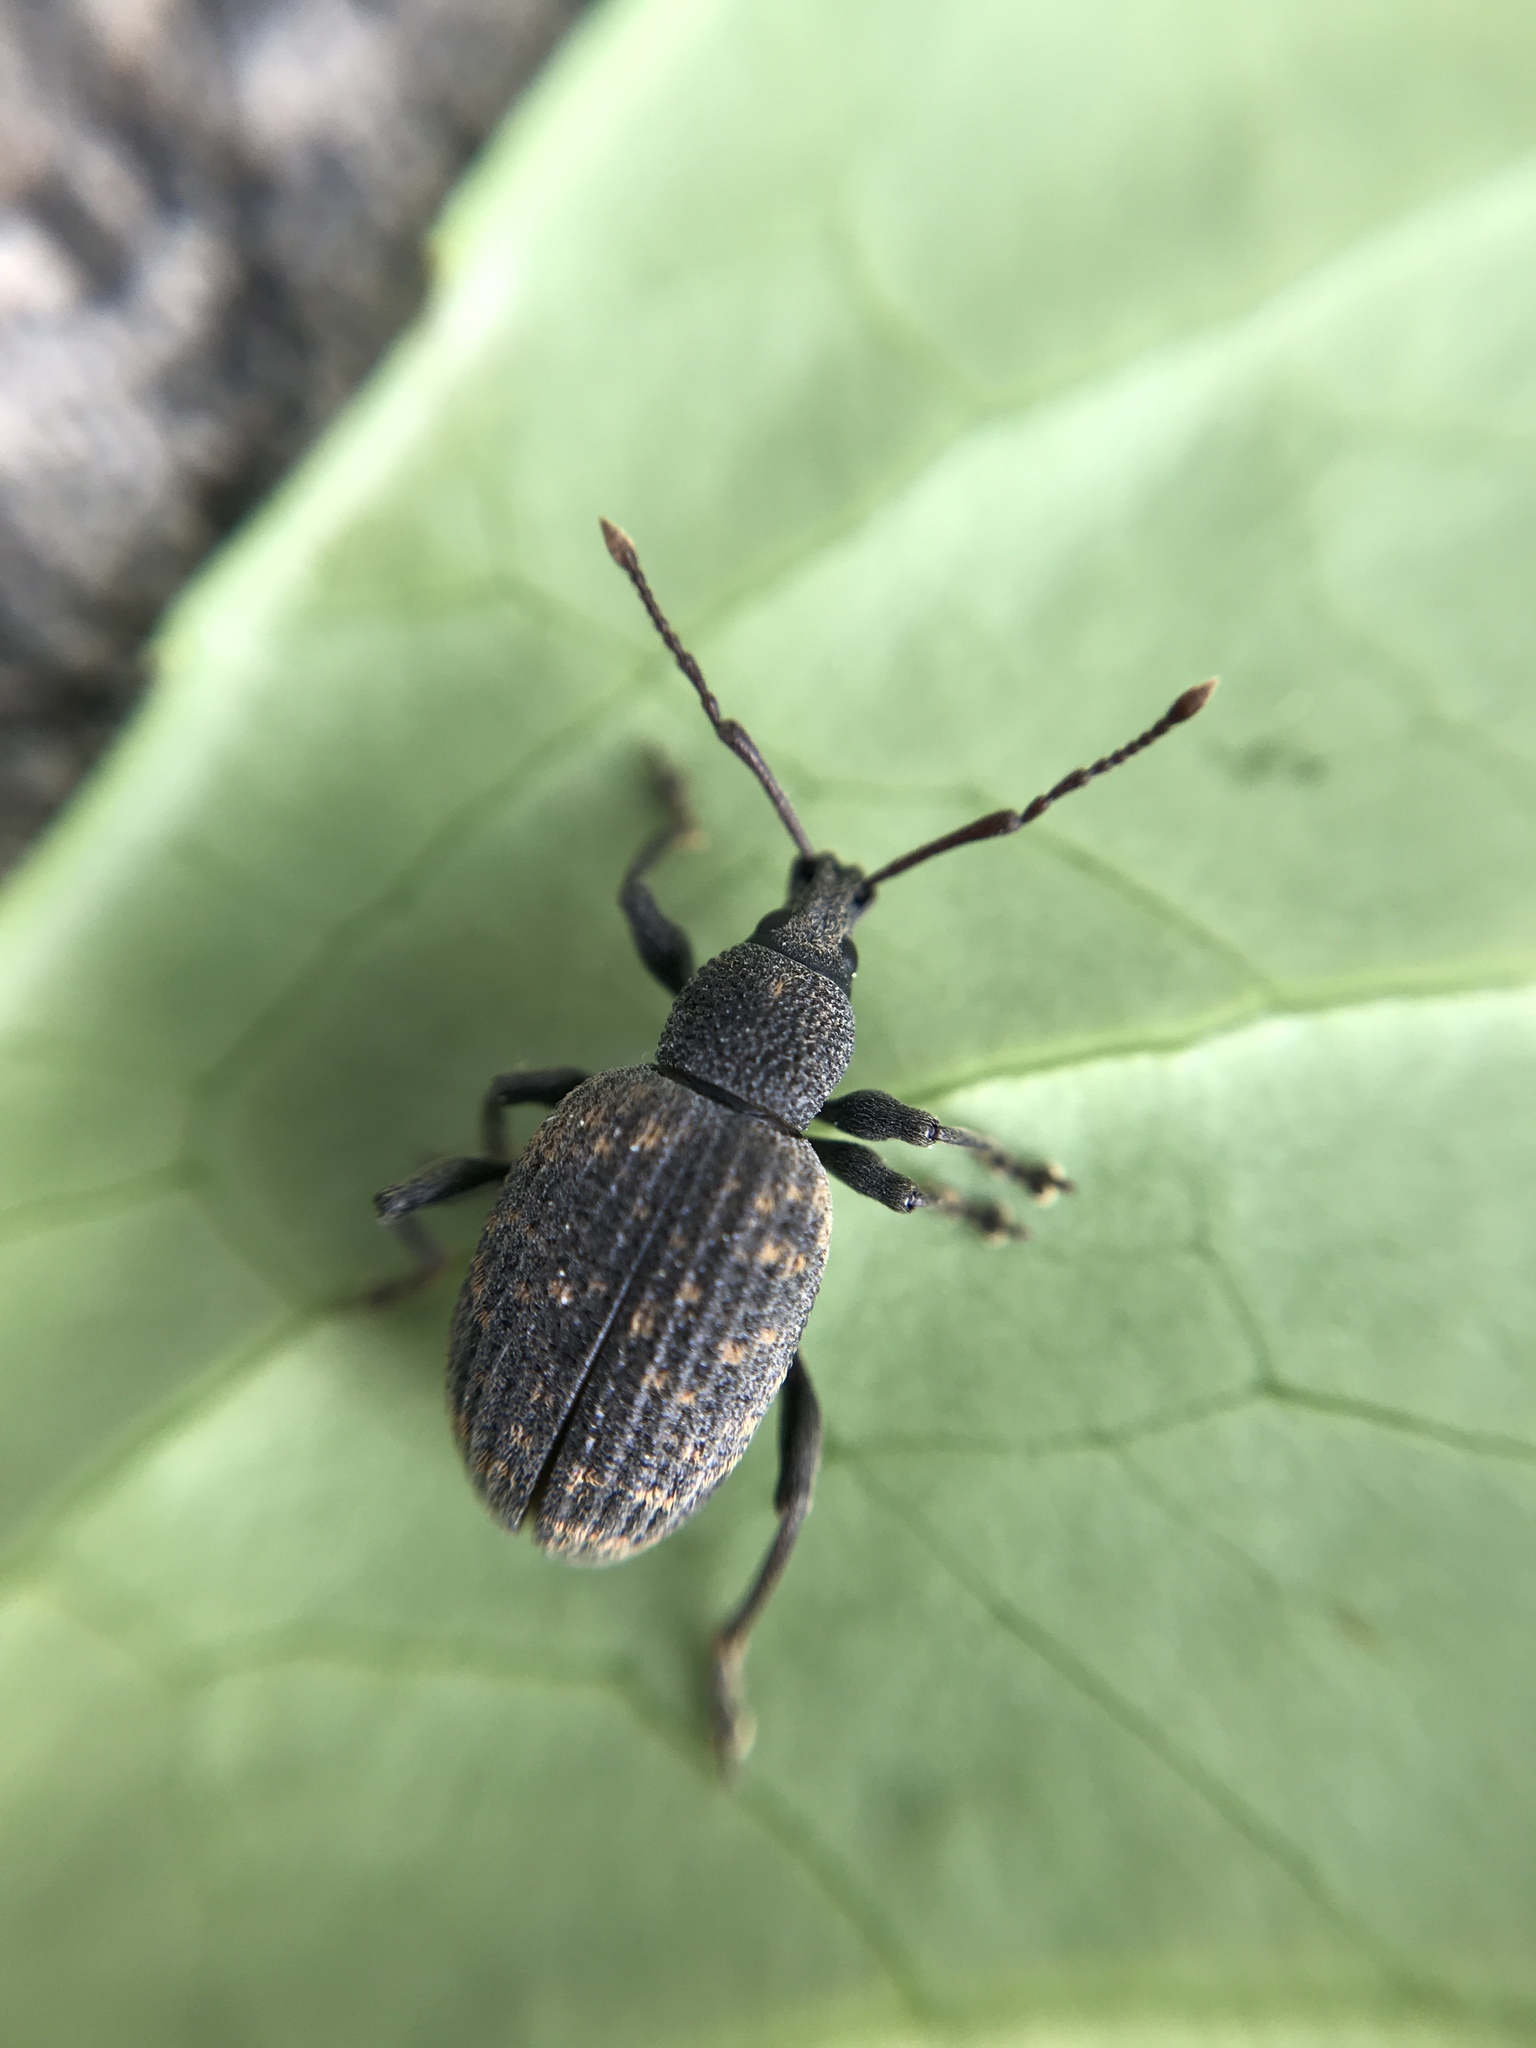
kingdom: Animalia
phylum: Arthropoda
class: Insecta
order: Coleoptera
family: Curculionidae
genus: Otiorhynchus
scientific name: Otiorhynchus sulcatus
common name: Black vine weevil
